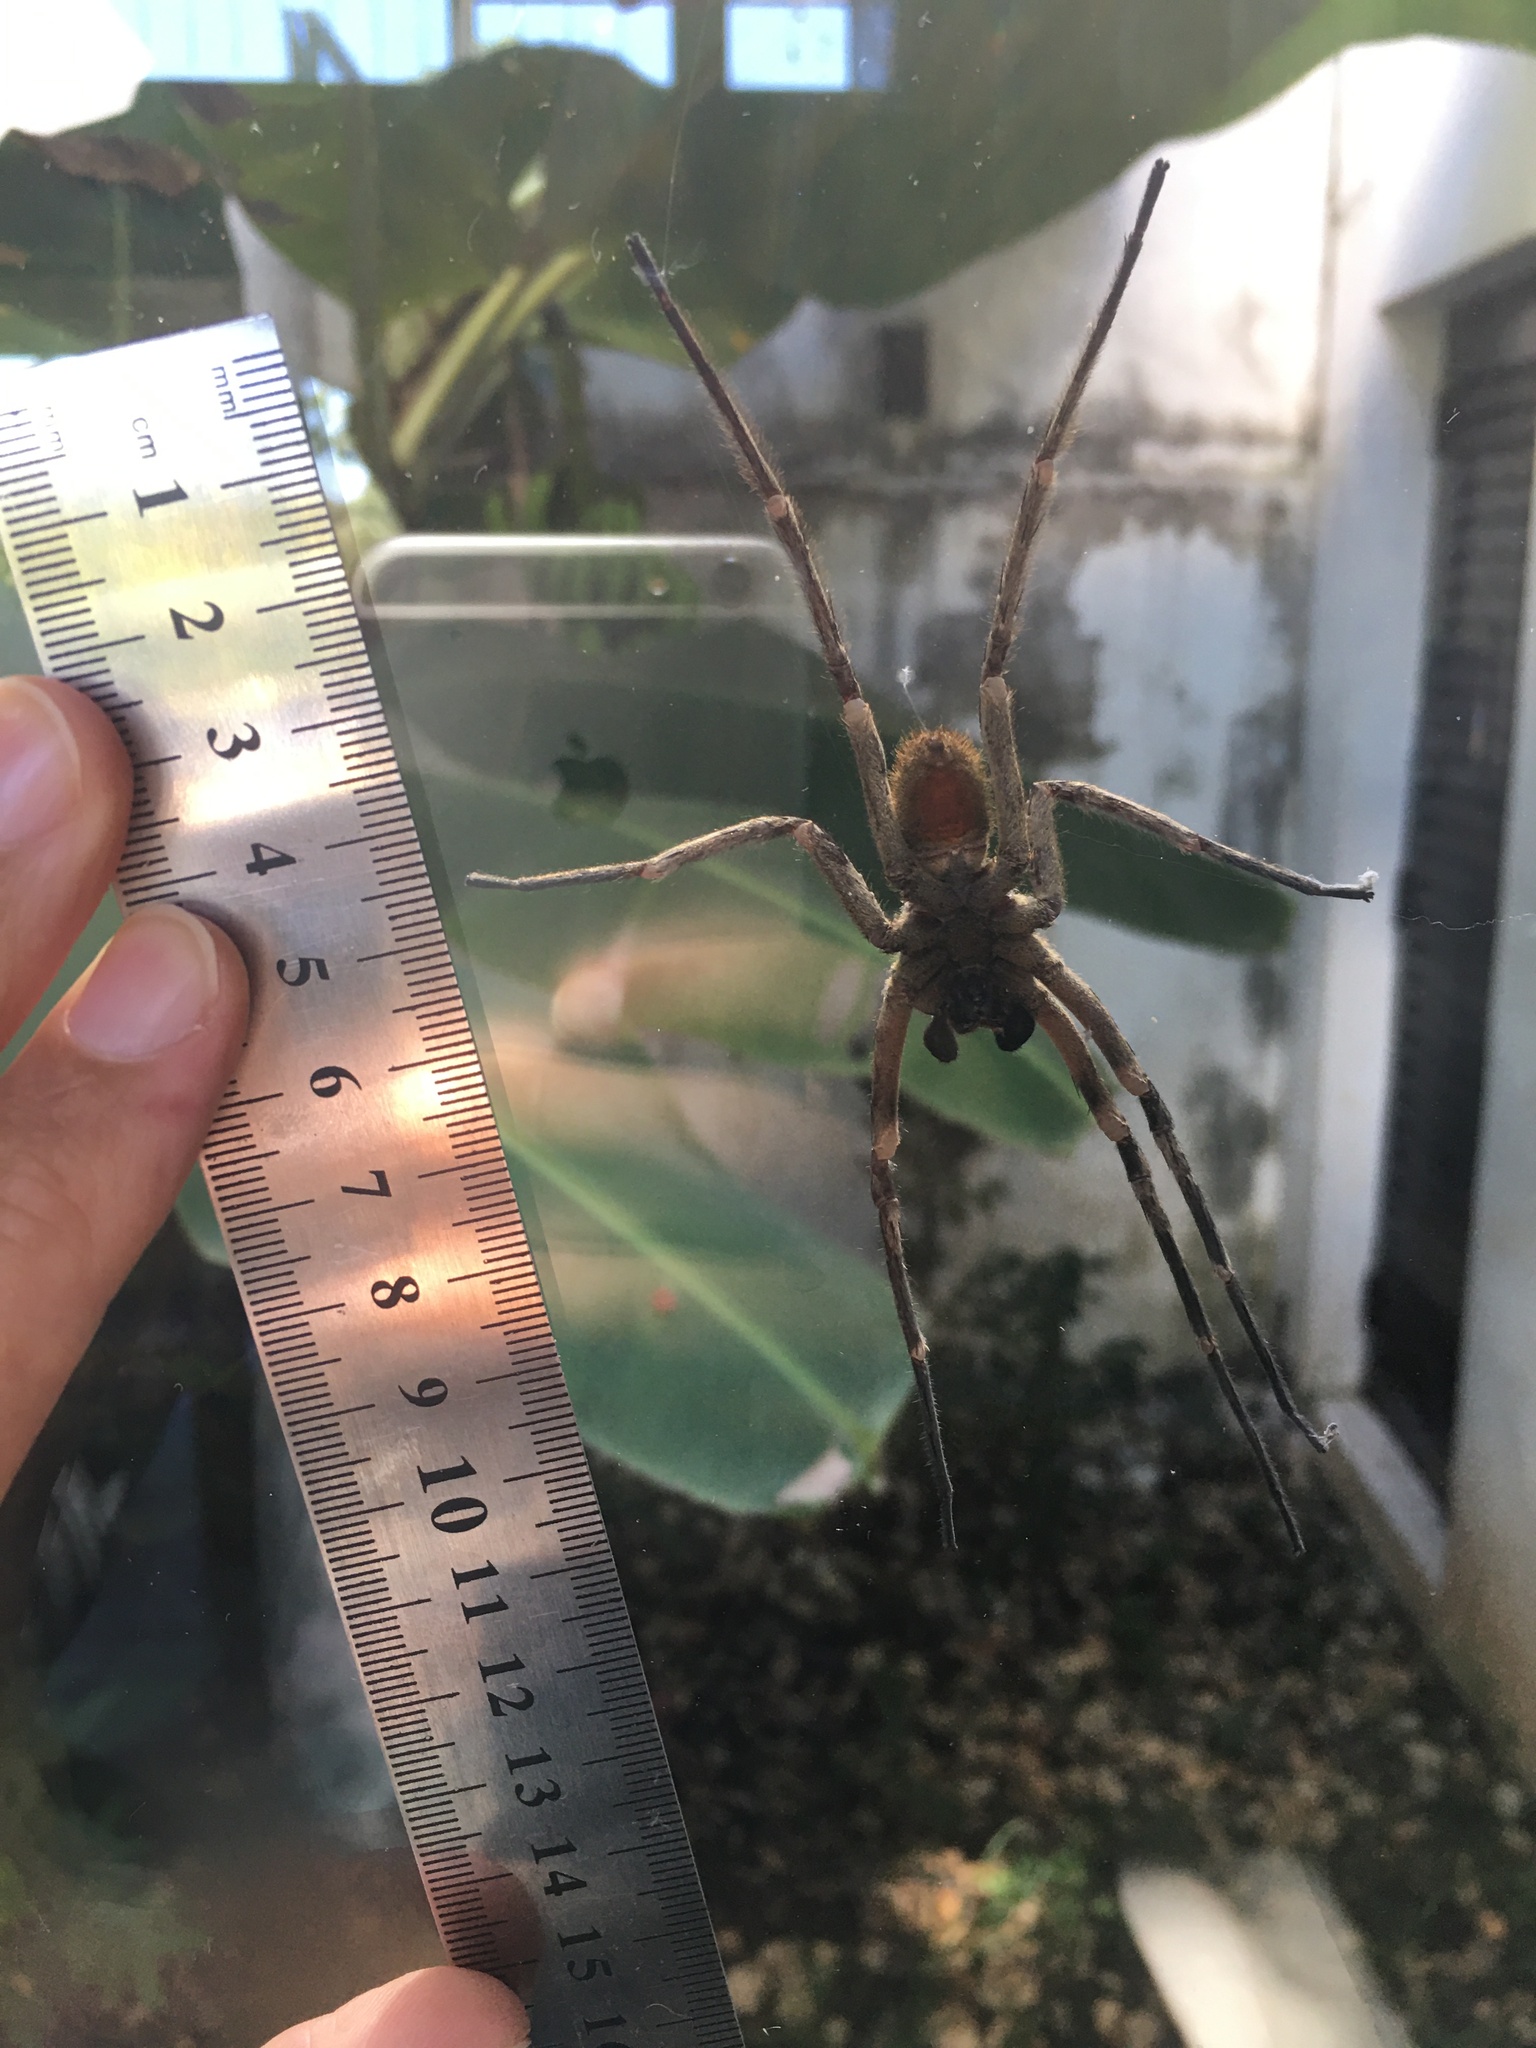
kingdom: Animalia
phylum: Arthropoda
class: Arachnida
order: Araneae
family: Ctenidae
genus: Phoneutria
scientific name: Phoneutria nigriventer
